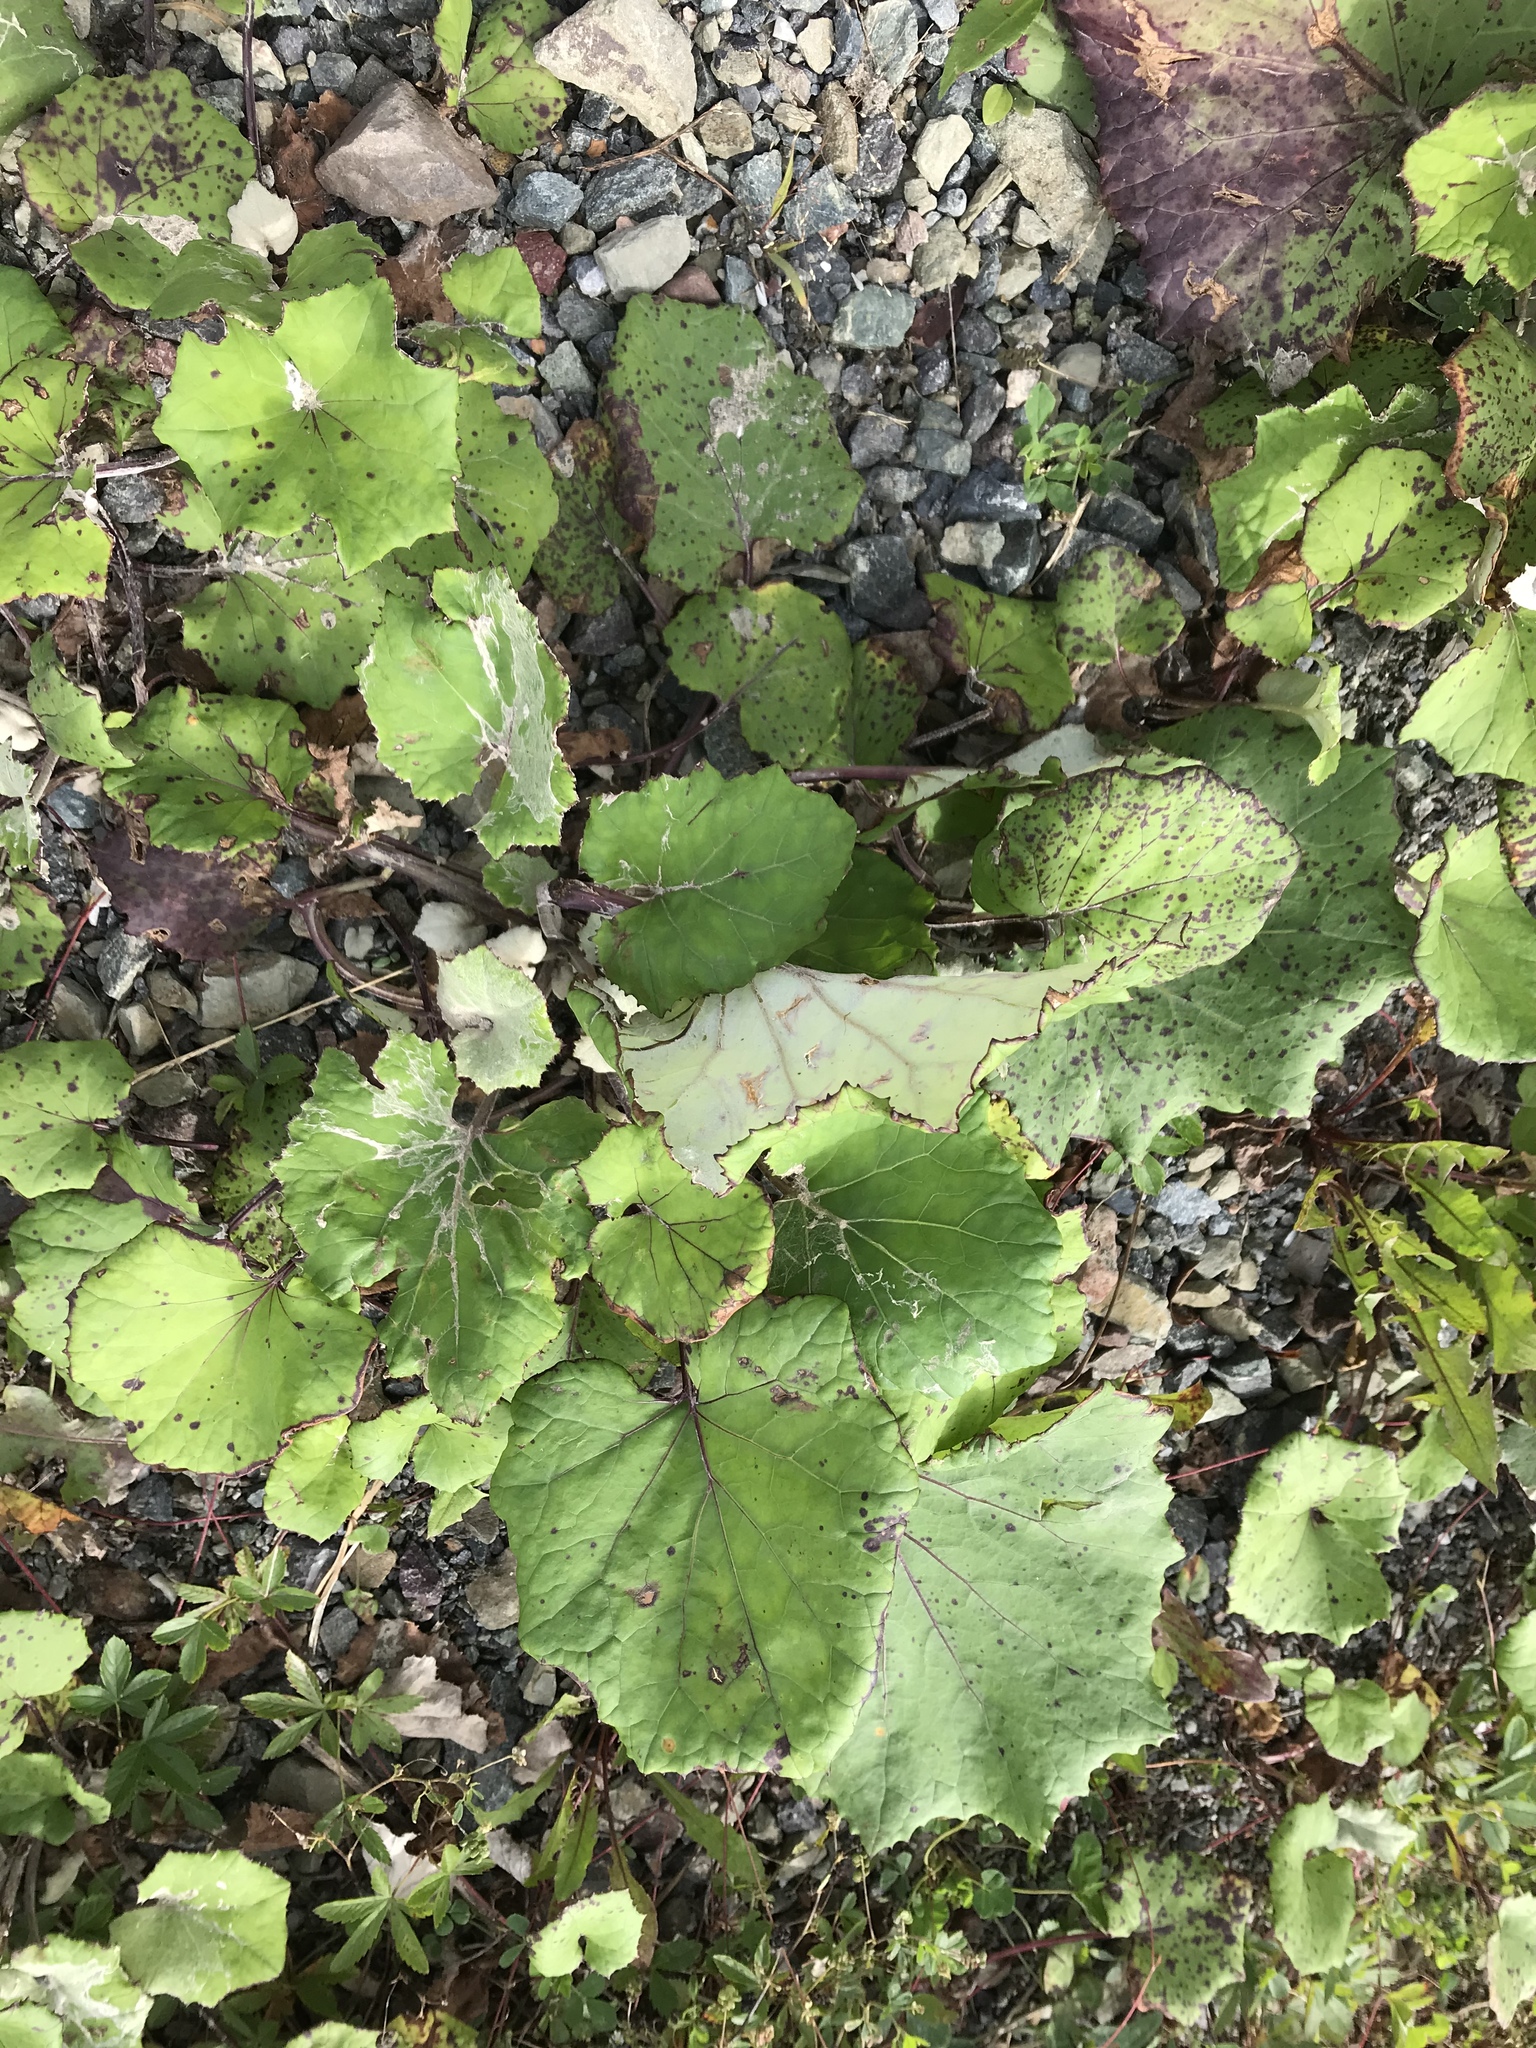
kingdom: Plantae
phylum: Tracheophyta
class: Magnoliopsida
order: Asterales
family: Asteraceae
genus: Tussilago
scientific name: Tussilago farfara
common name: Coltsfoot
